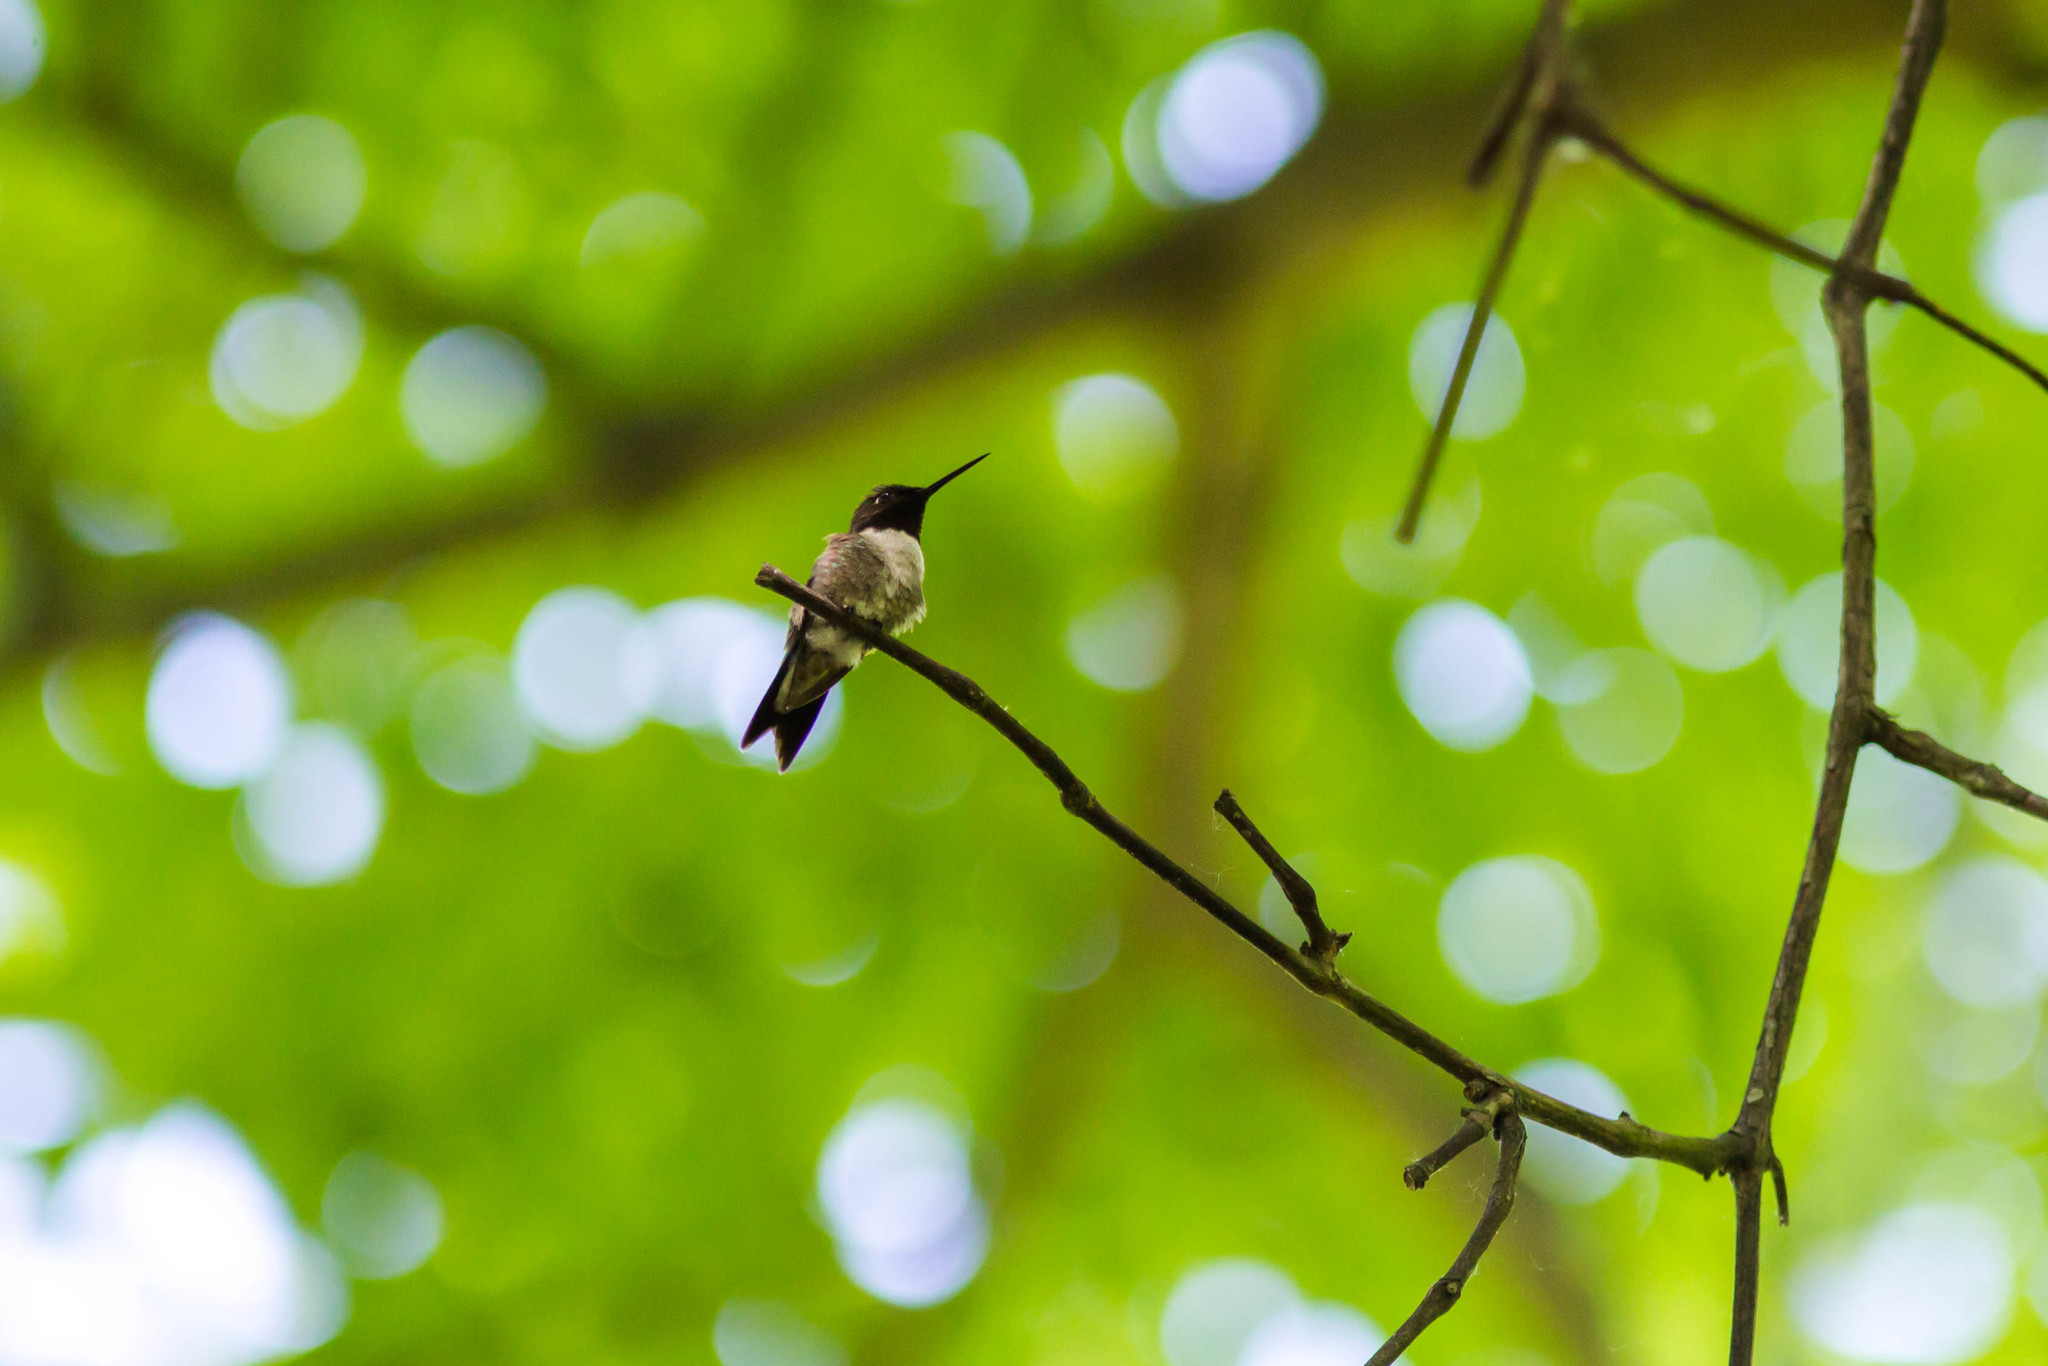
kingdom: Animalia
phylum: Chordata
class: Aves
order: Apodiformes
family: Trochilidae
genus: Archilochus
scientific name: Archilochus colubris
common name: Ruby-throated hummingbird
